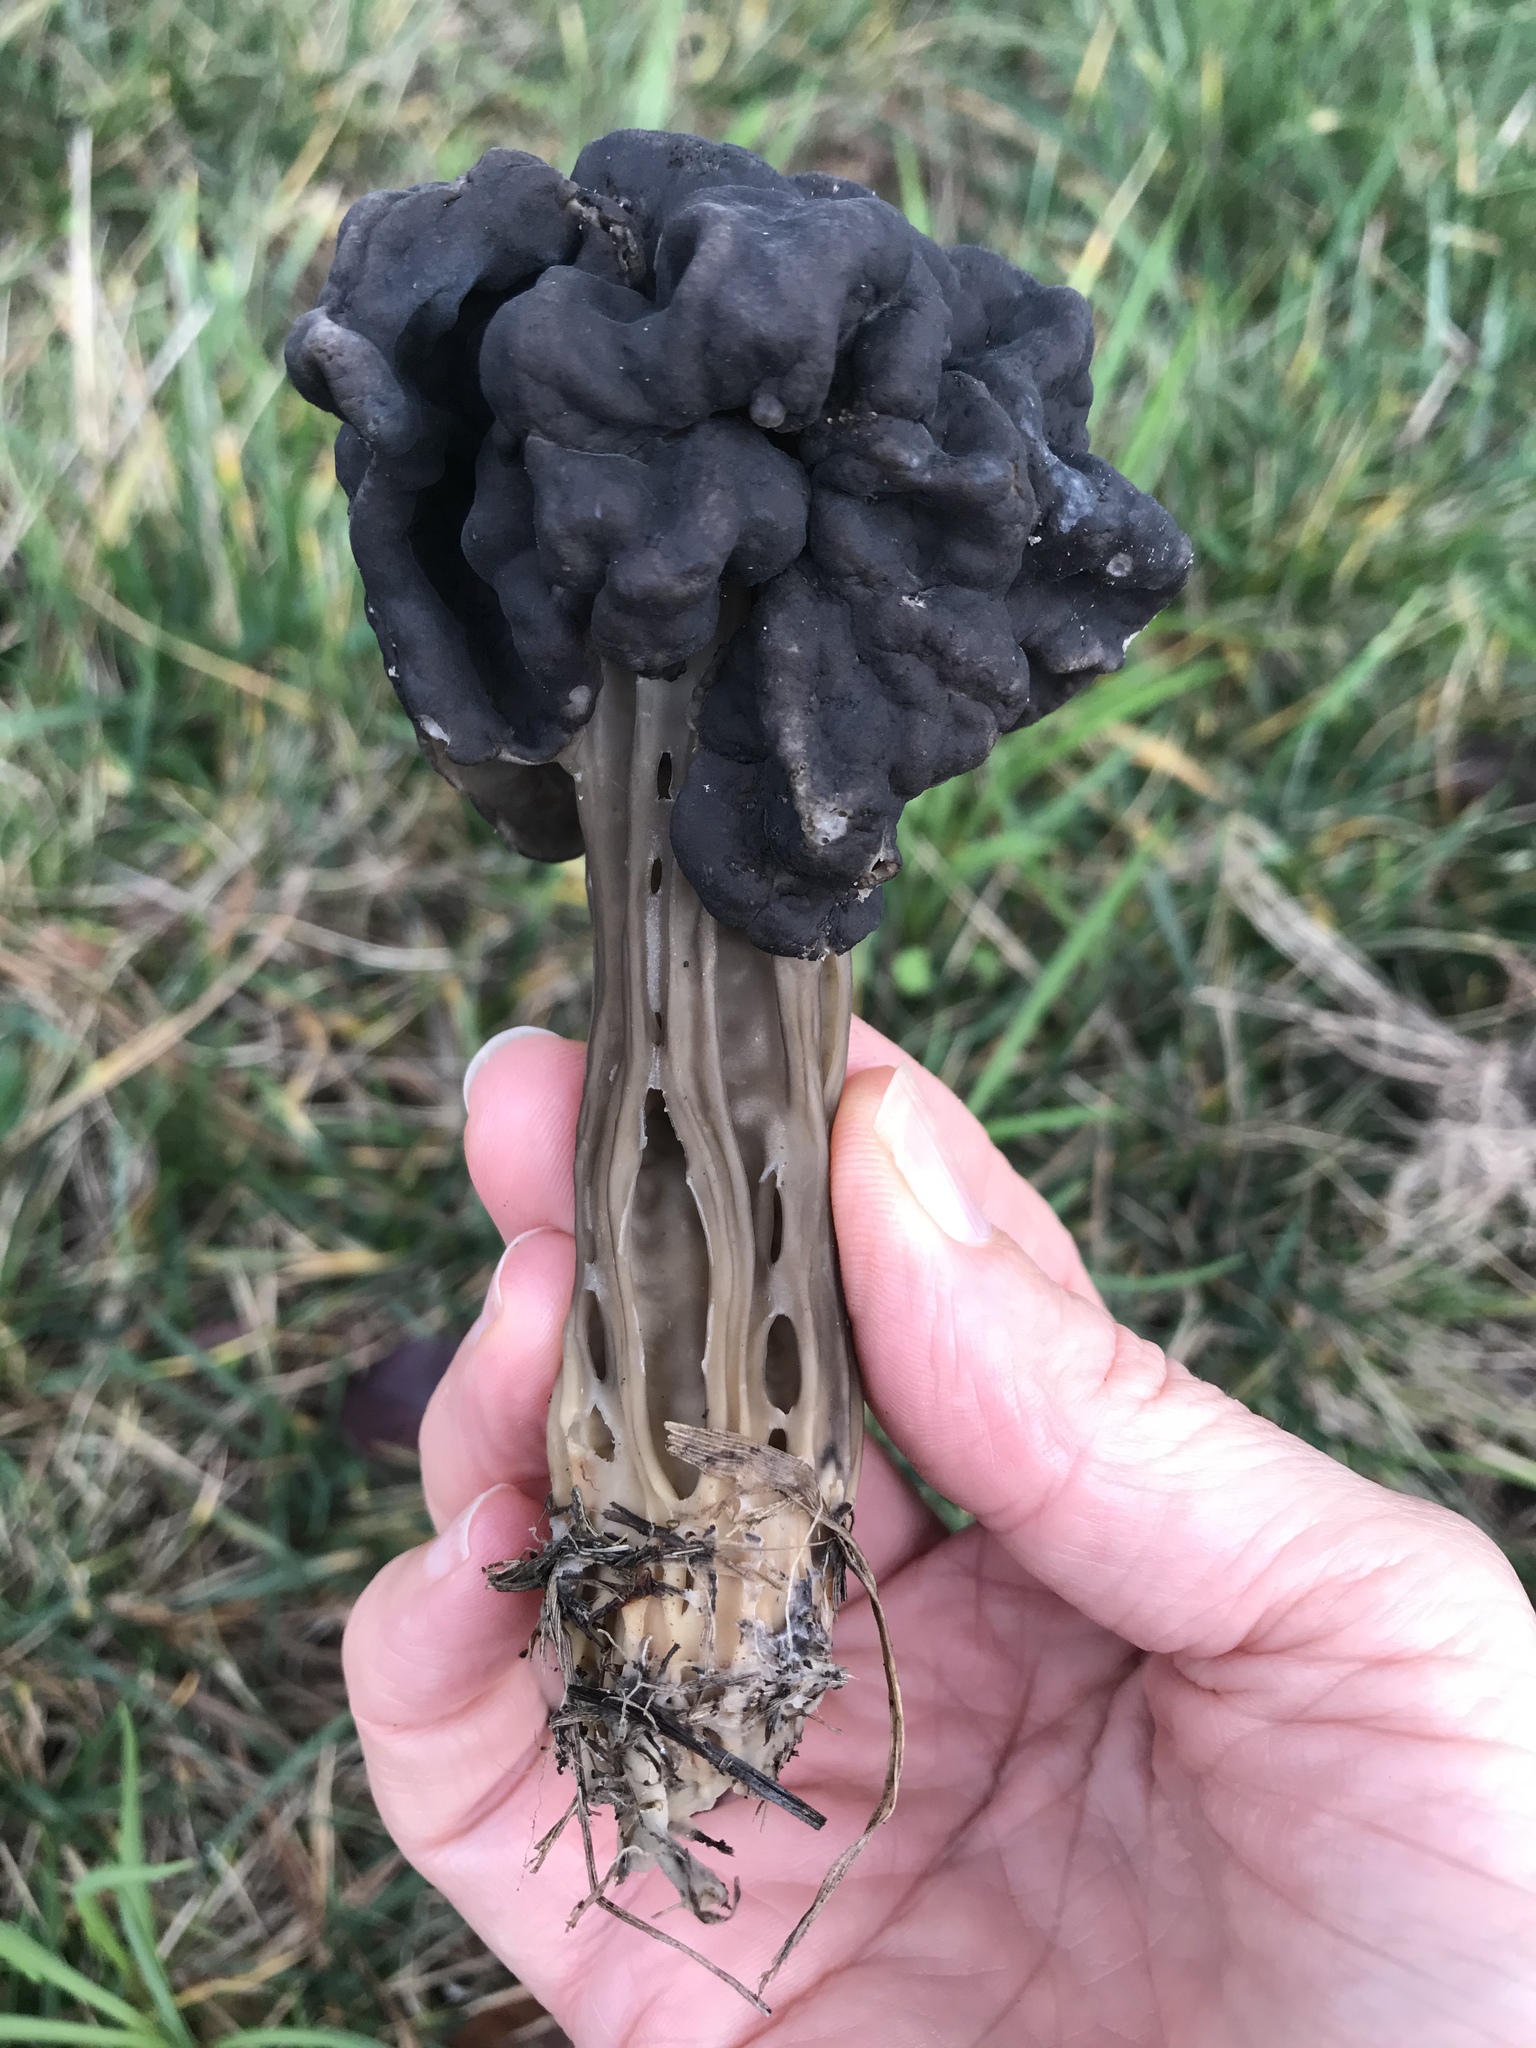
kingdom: Fungi
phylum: Ascomycota
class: Pezizomycetes
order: Pezizales
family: Helvellaceae
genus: Helvella
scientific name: Helvella vespertina
